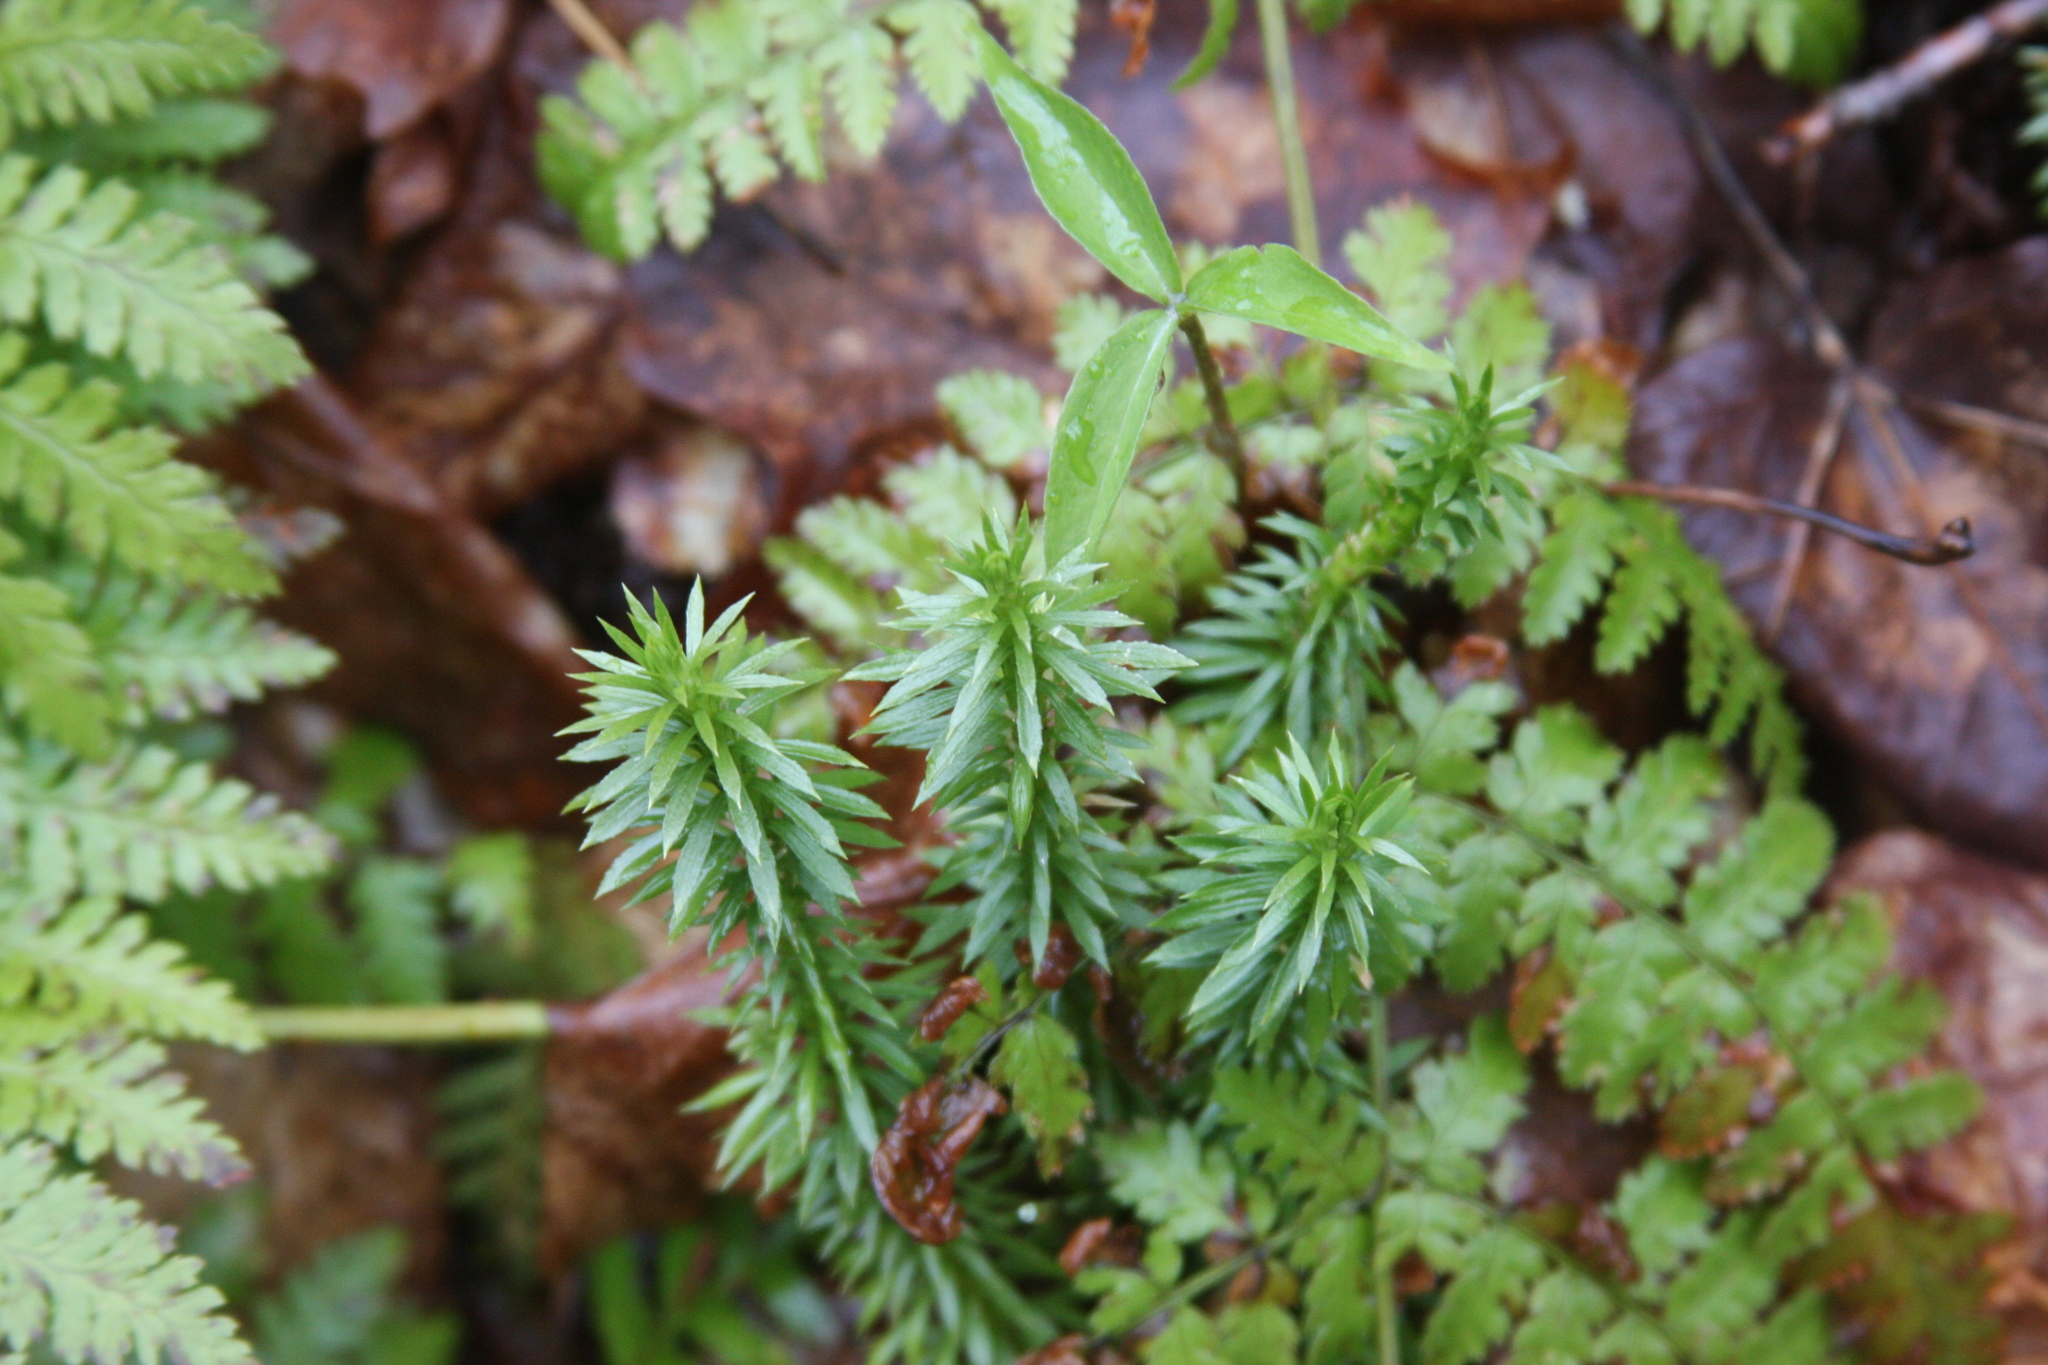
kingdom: Plantae
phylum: Tracheophyta
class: Lycopodiopsida
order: Lycopodiales
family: Lycopodiaceae
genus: Huperzia
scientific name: Huperzia lucidula
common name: Shining clubmoss
